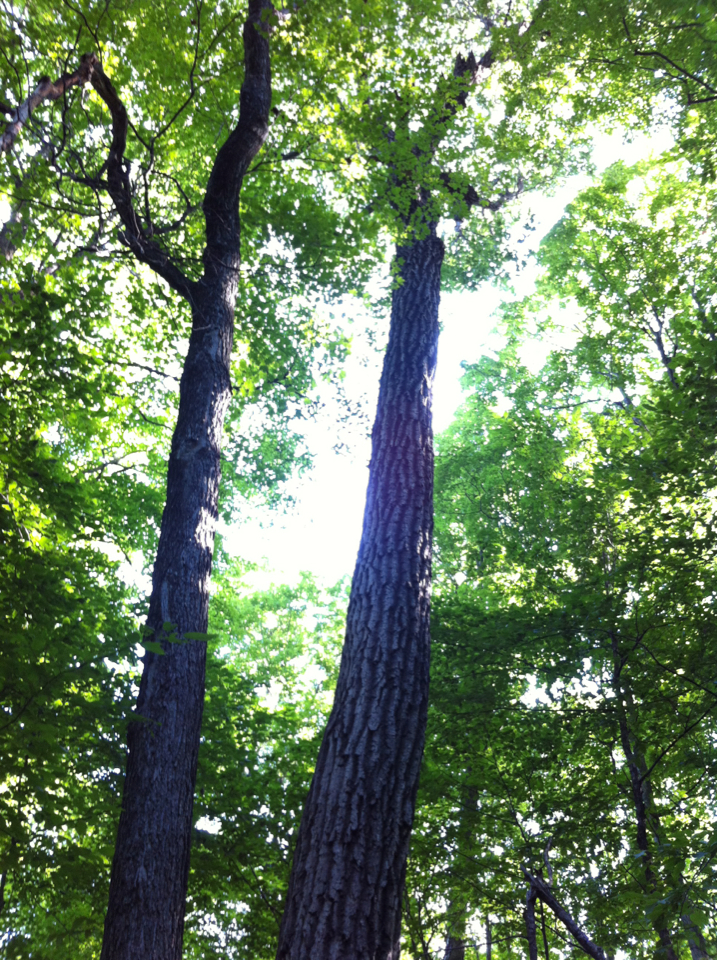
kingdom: Plantae
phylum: Tracheophyta
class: Magnoliopsida
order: Fagales
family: Fagaceae
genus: Quercus
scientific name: Quercus rubra
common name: Red oak
